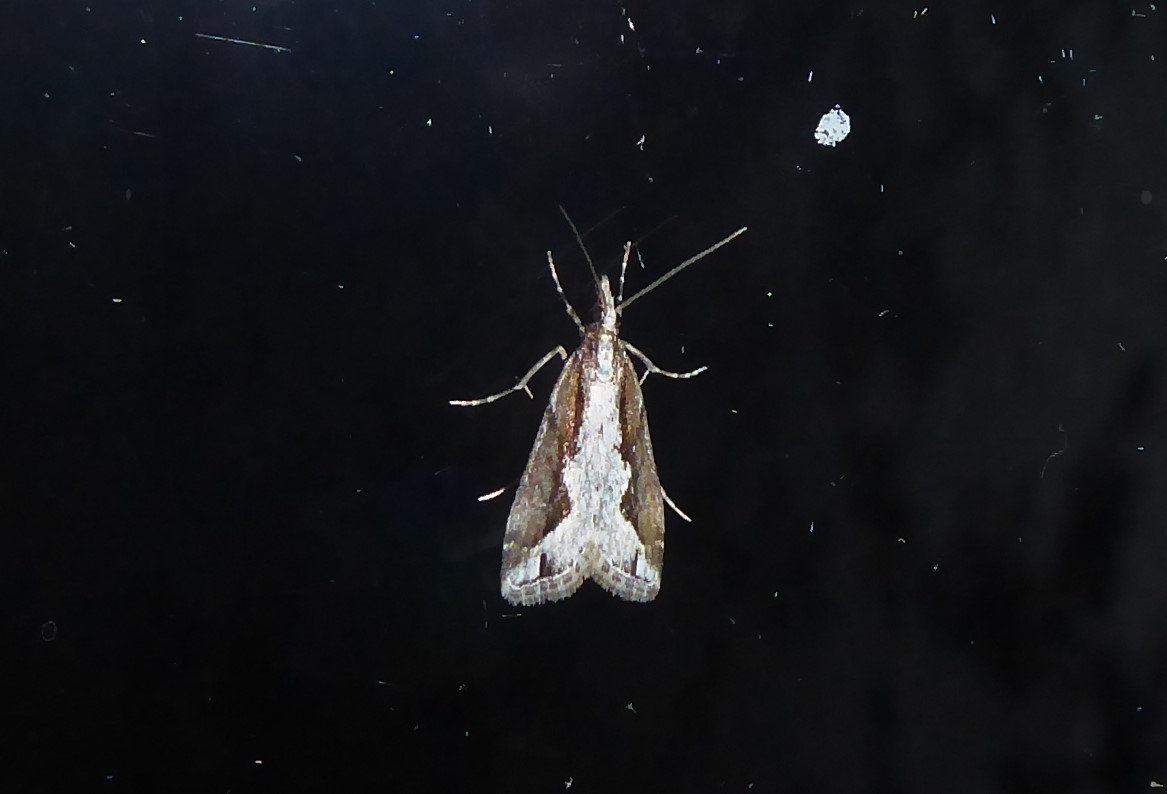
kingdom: Animalia
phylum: Arthropoda
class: Insecta
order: Lepidoptera
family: Crambidae
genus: Eudonia
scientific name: Eudonia steropaea
